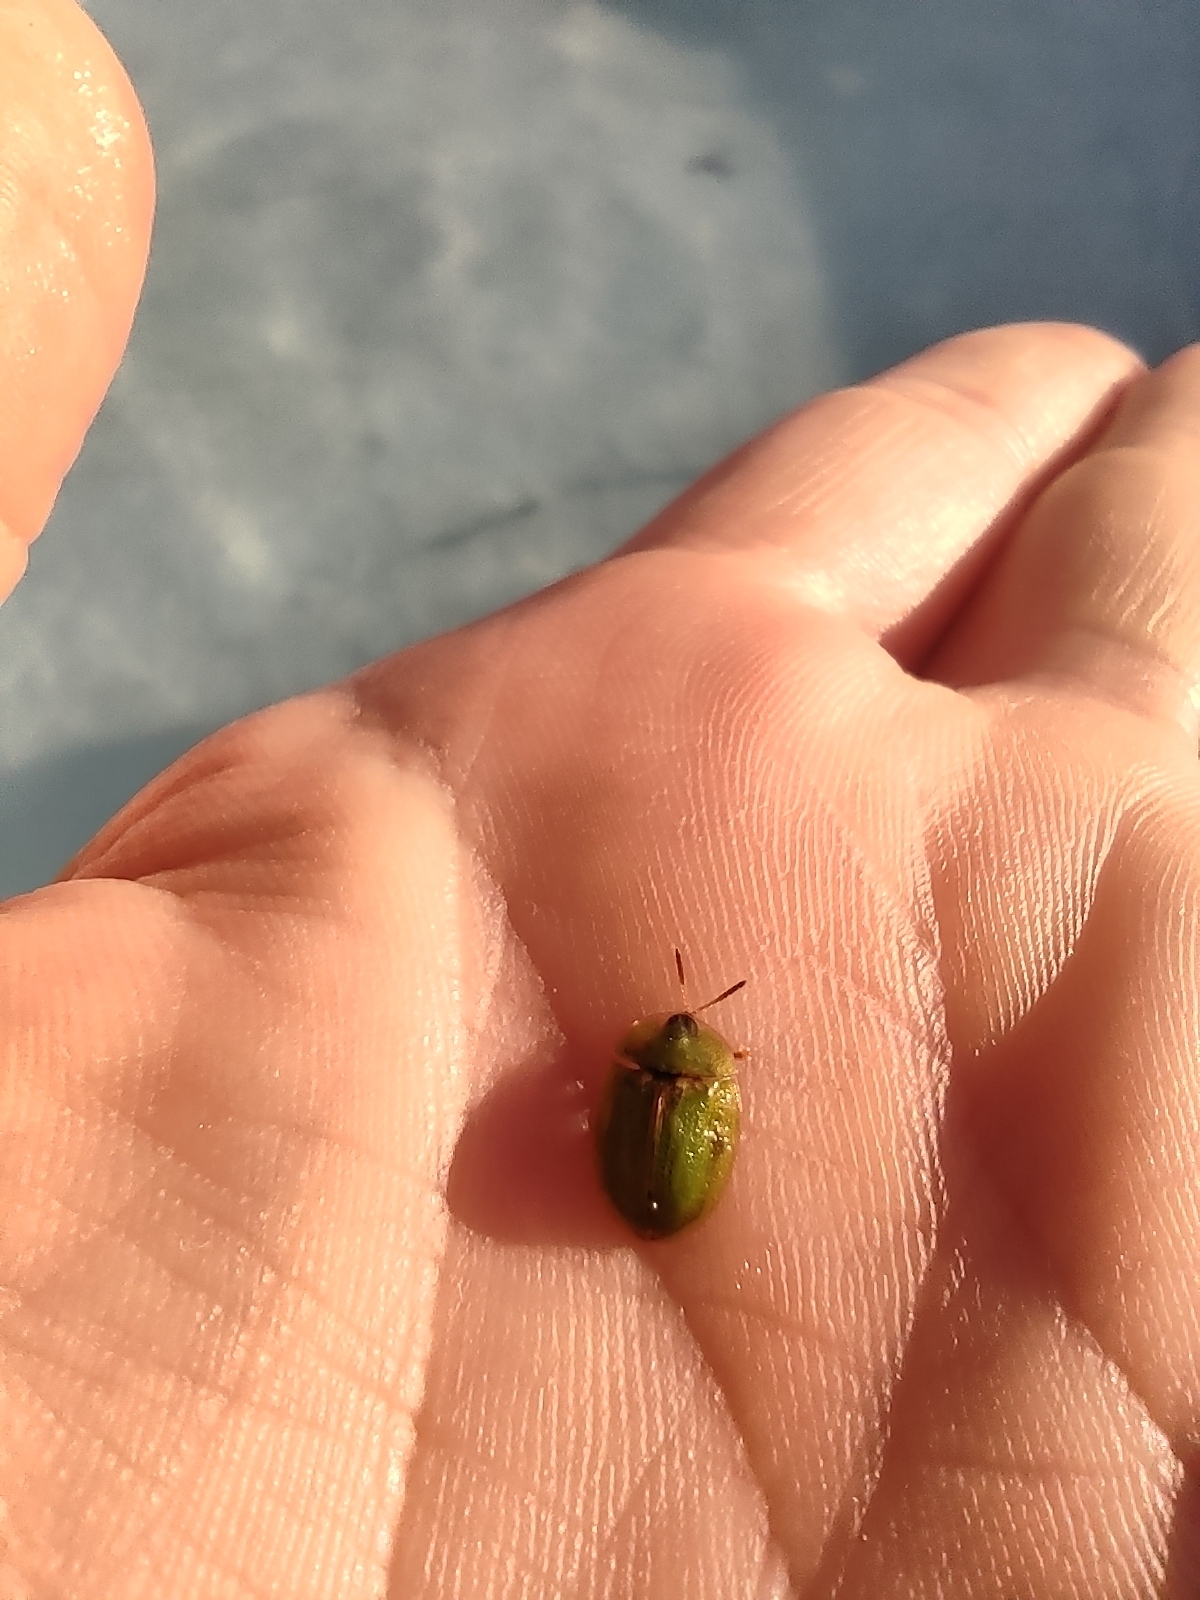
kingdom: Animalia
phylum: Arthropoda
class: Insecta
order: Coleoptera
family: Chrysomelidae
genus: Cassida
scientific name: Cassida rubiginosa
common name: Thistle tortoise beetle
